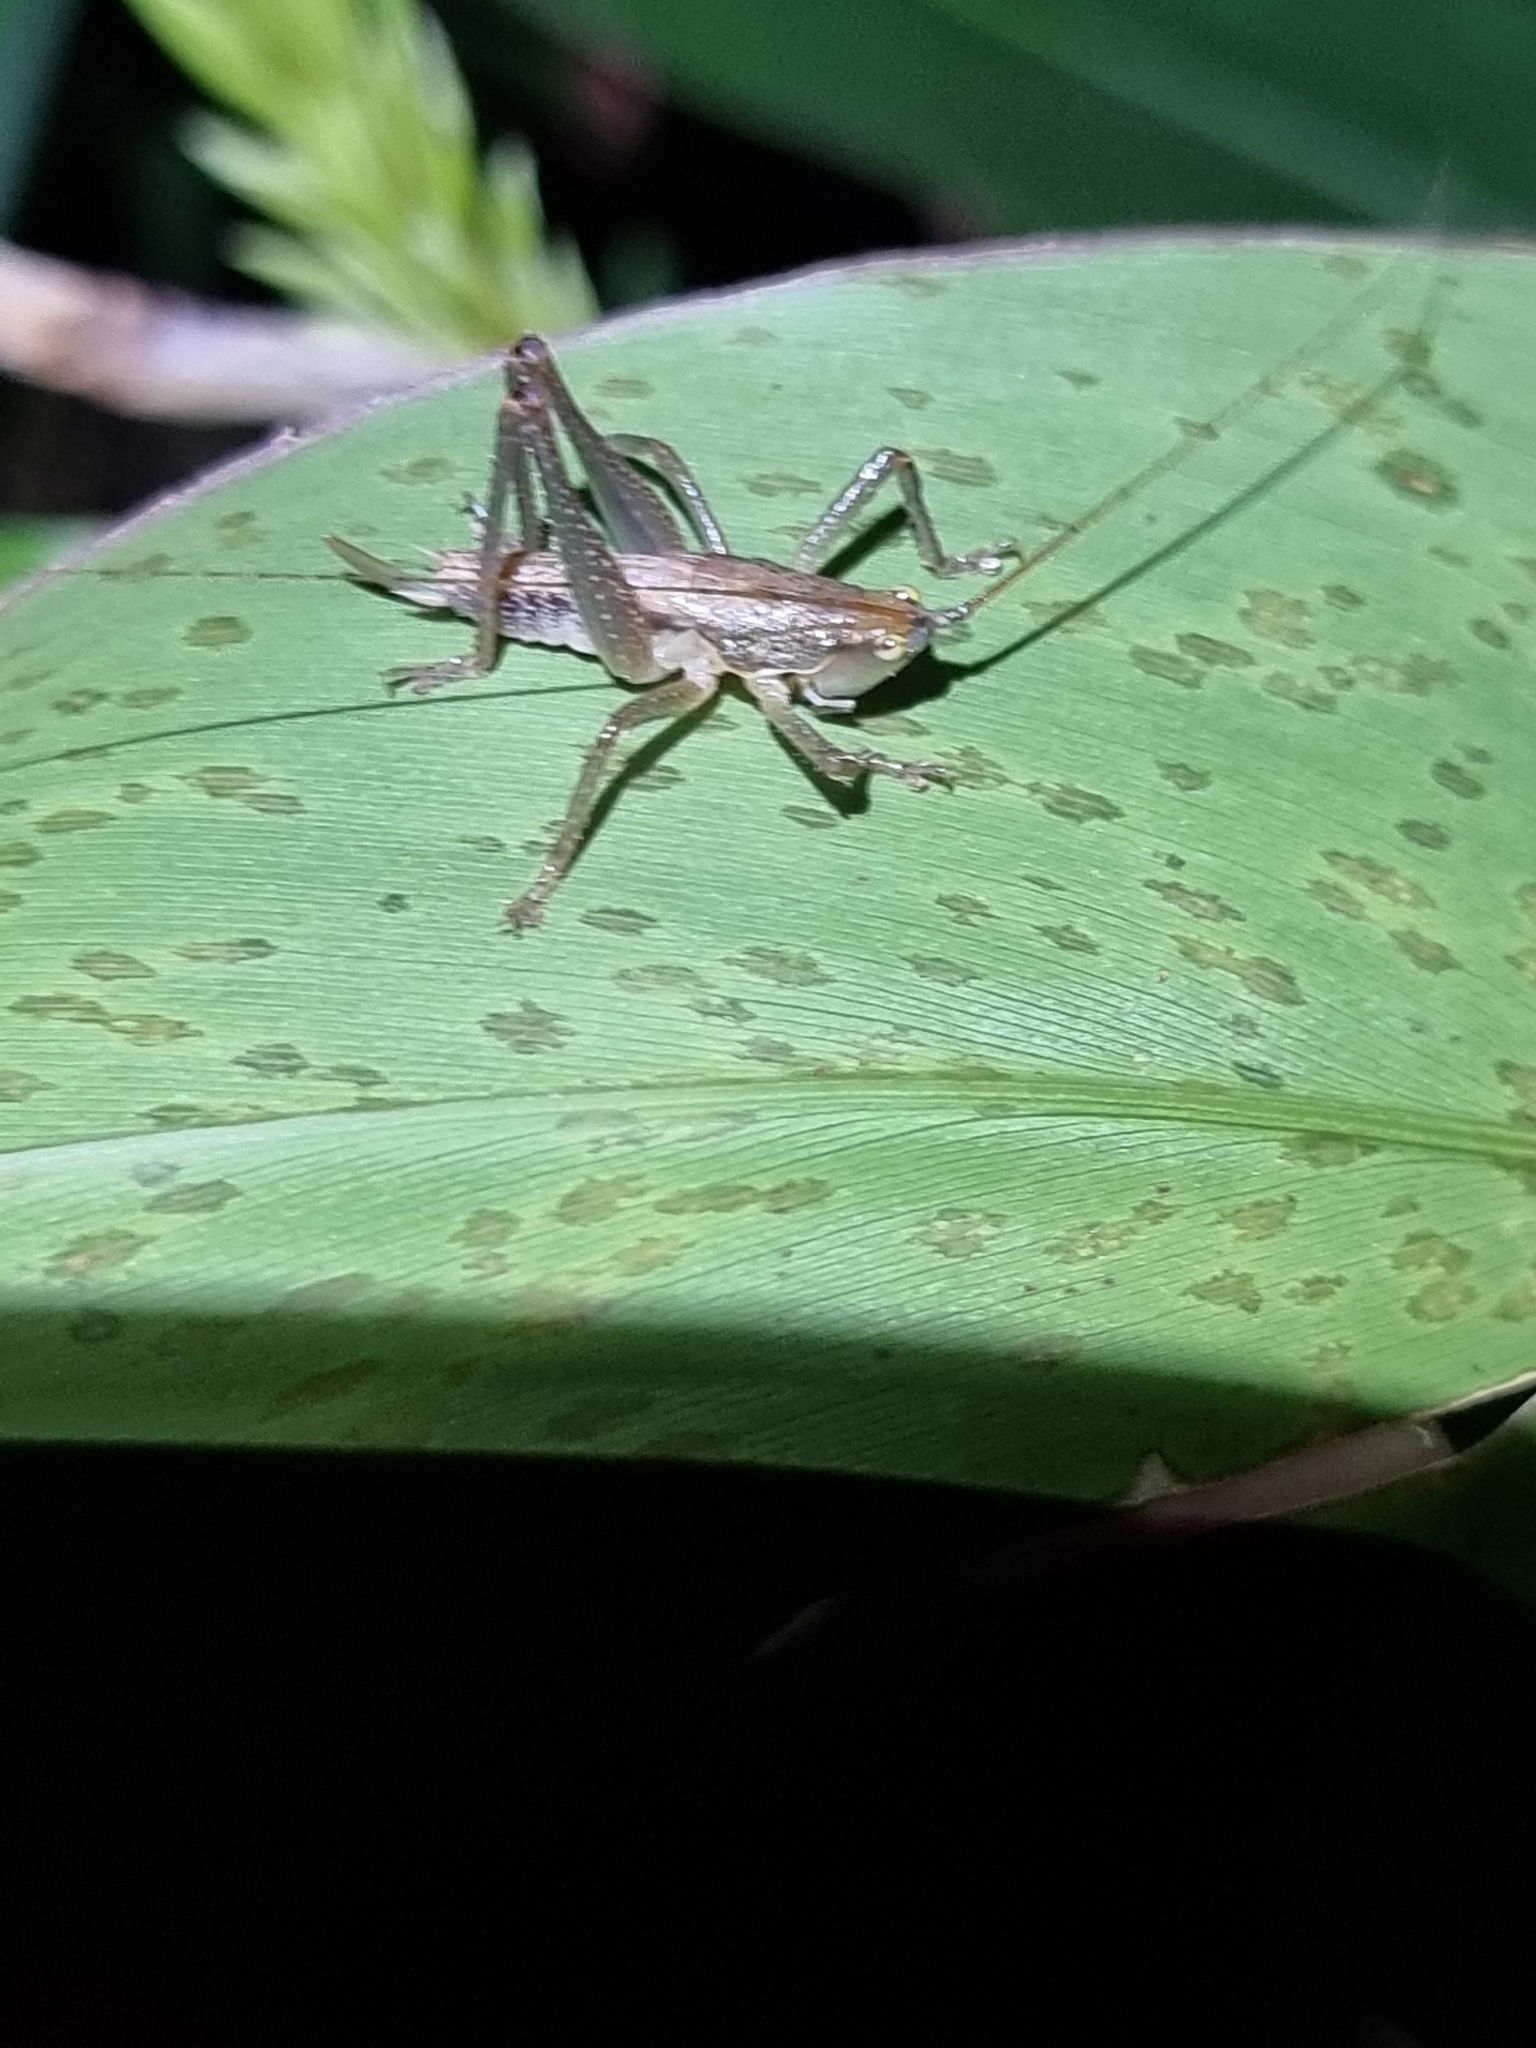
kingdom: Animalia
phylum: Arthropoda
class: Insecta
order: Orthoptera
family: Tettigoniidae
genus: Austrosalomona
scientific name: Austrosalomona falcata
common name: Olive-green coastal katydid
